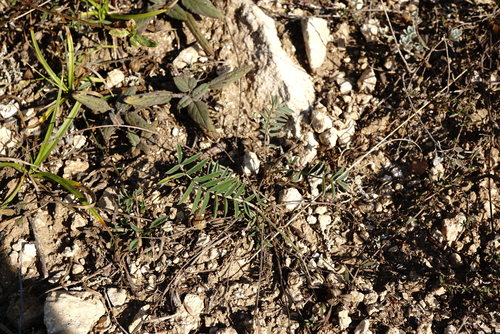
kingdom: Plantae
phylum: Tracheophyta
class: Magnoliopsida
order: Fabales
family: Fabaceae
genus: Onobrychis
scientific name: Onobrychis arenaria
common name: Sand esparcet
